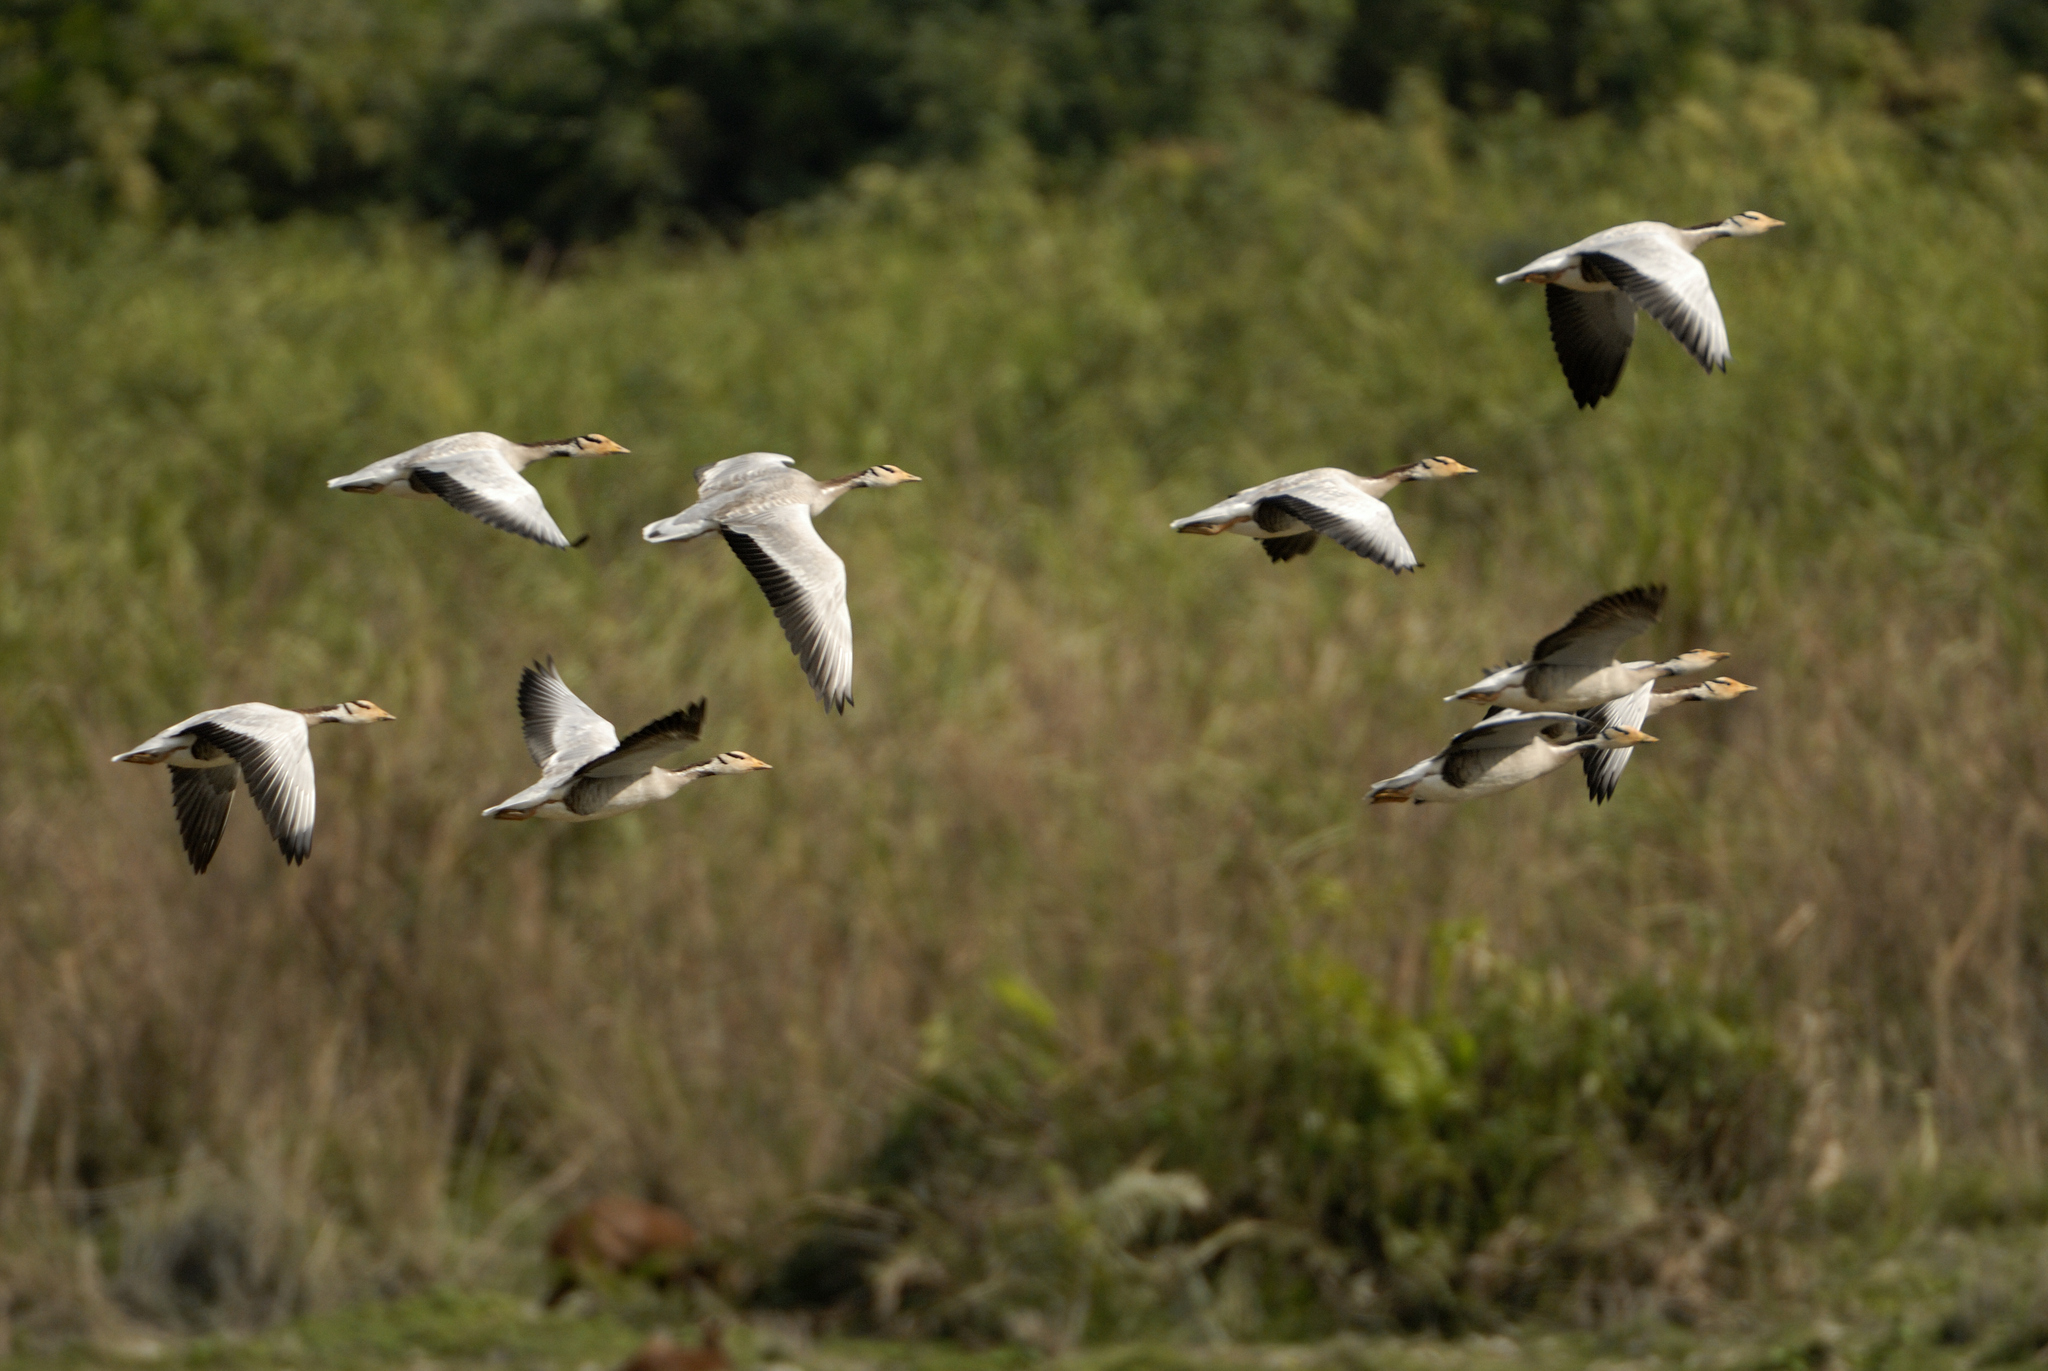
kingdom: Animalia
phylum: Chordata
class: Aves
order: Anseriformes
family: Anatidae
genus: Anser
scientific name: Anser indicus
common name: Bar-headed goose
